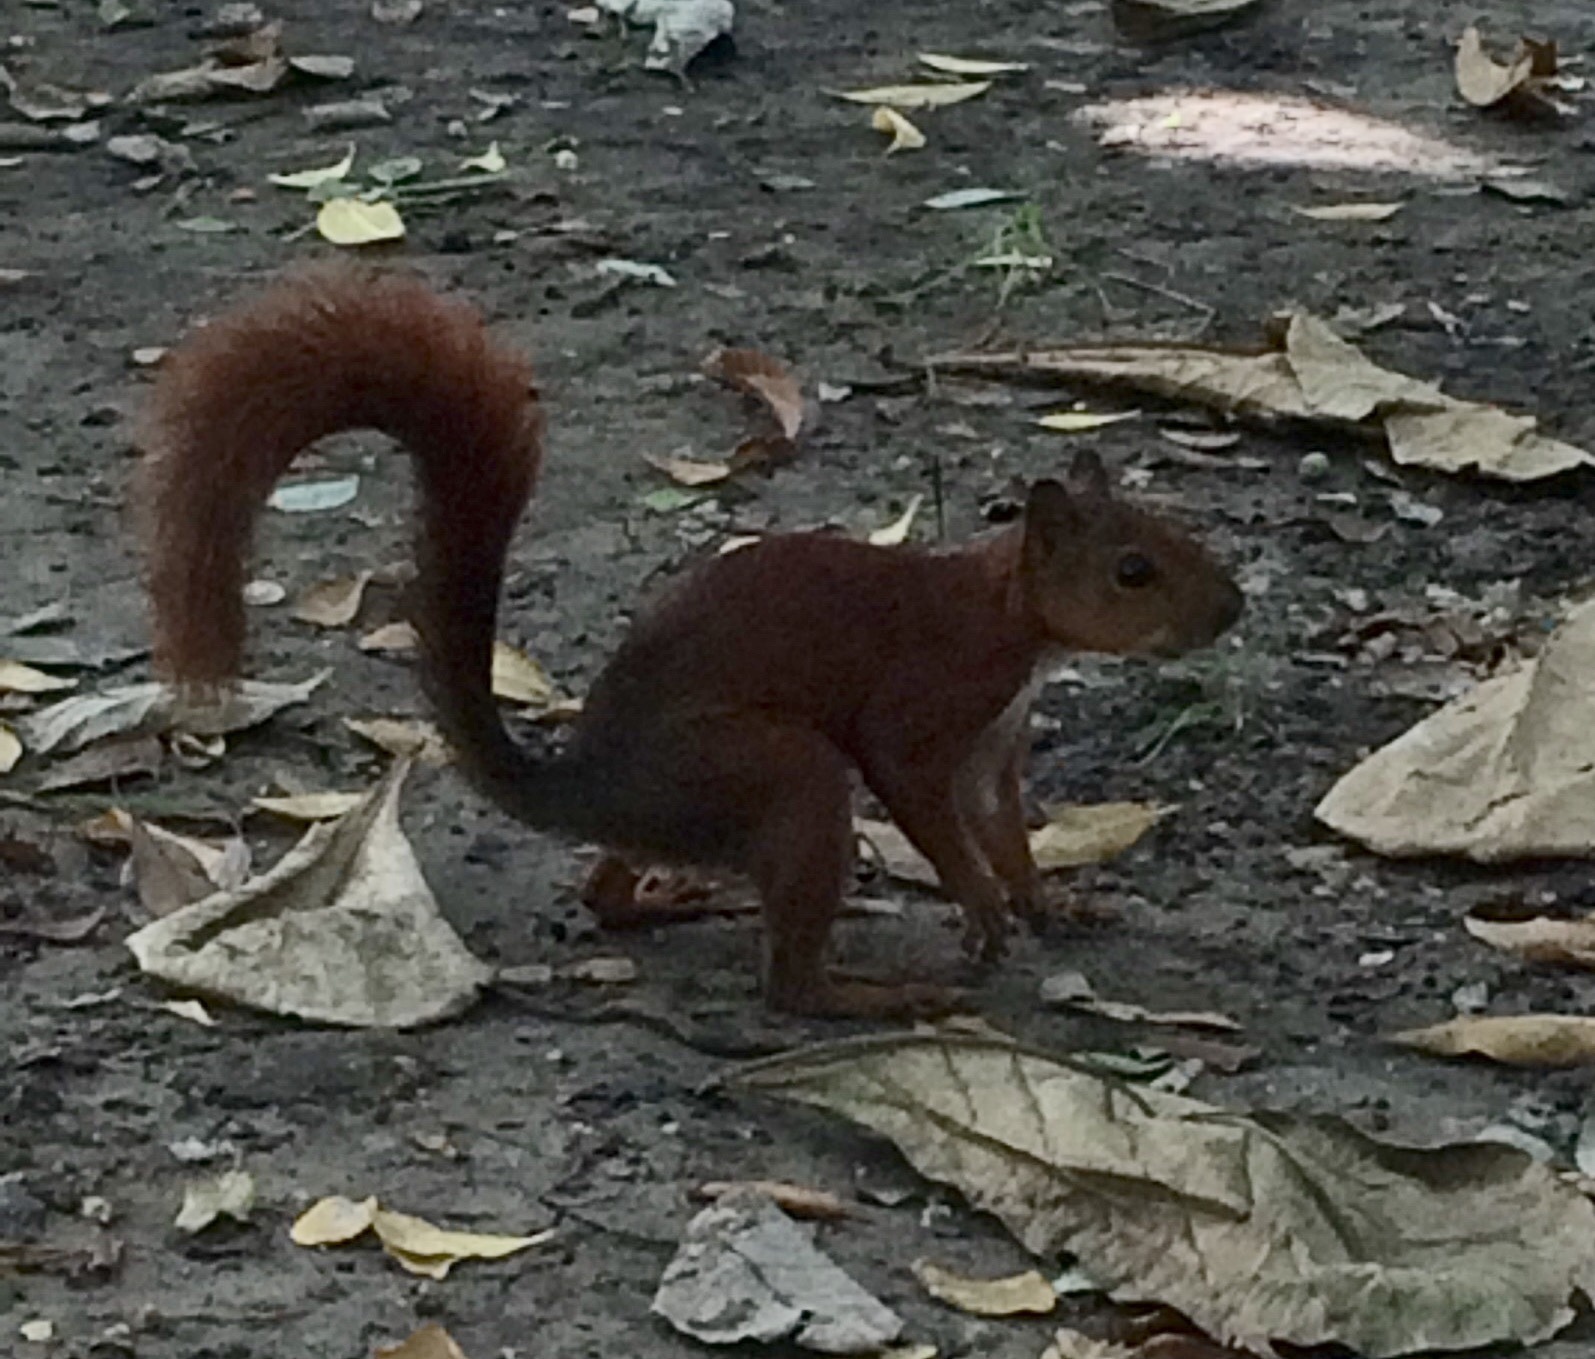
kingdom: Animalia
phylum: Chordata
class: Mammalia
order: Rodentia
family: Sciuridae
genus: Sciurus
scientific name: Sciurus granatensis
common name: Red-tailed squirrel
